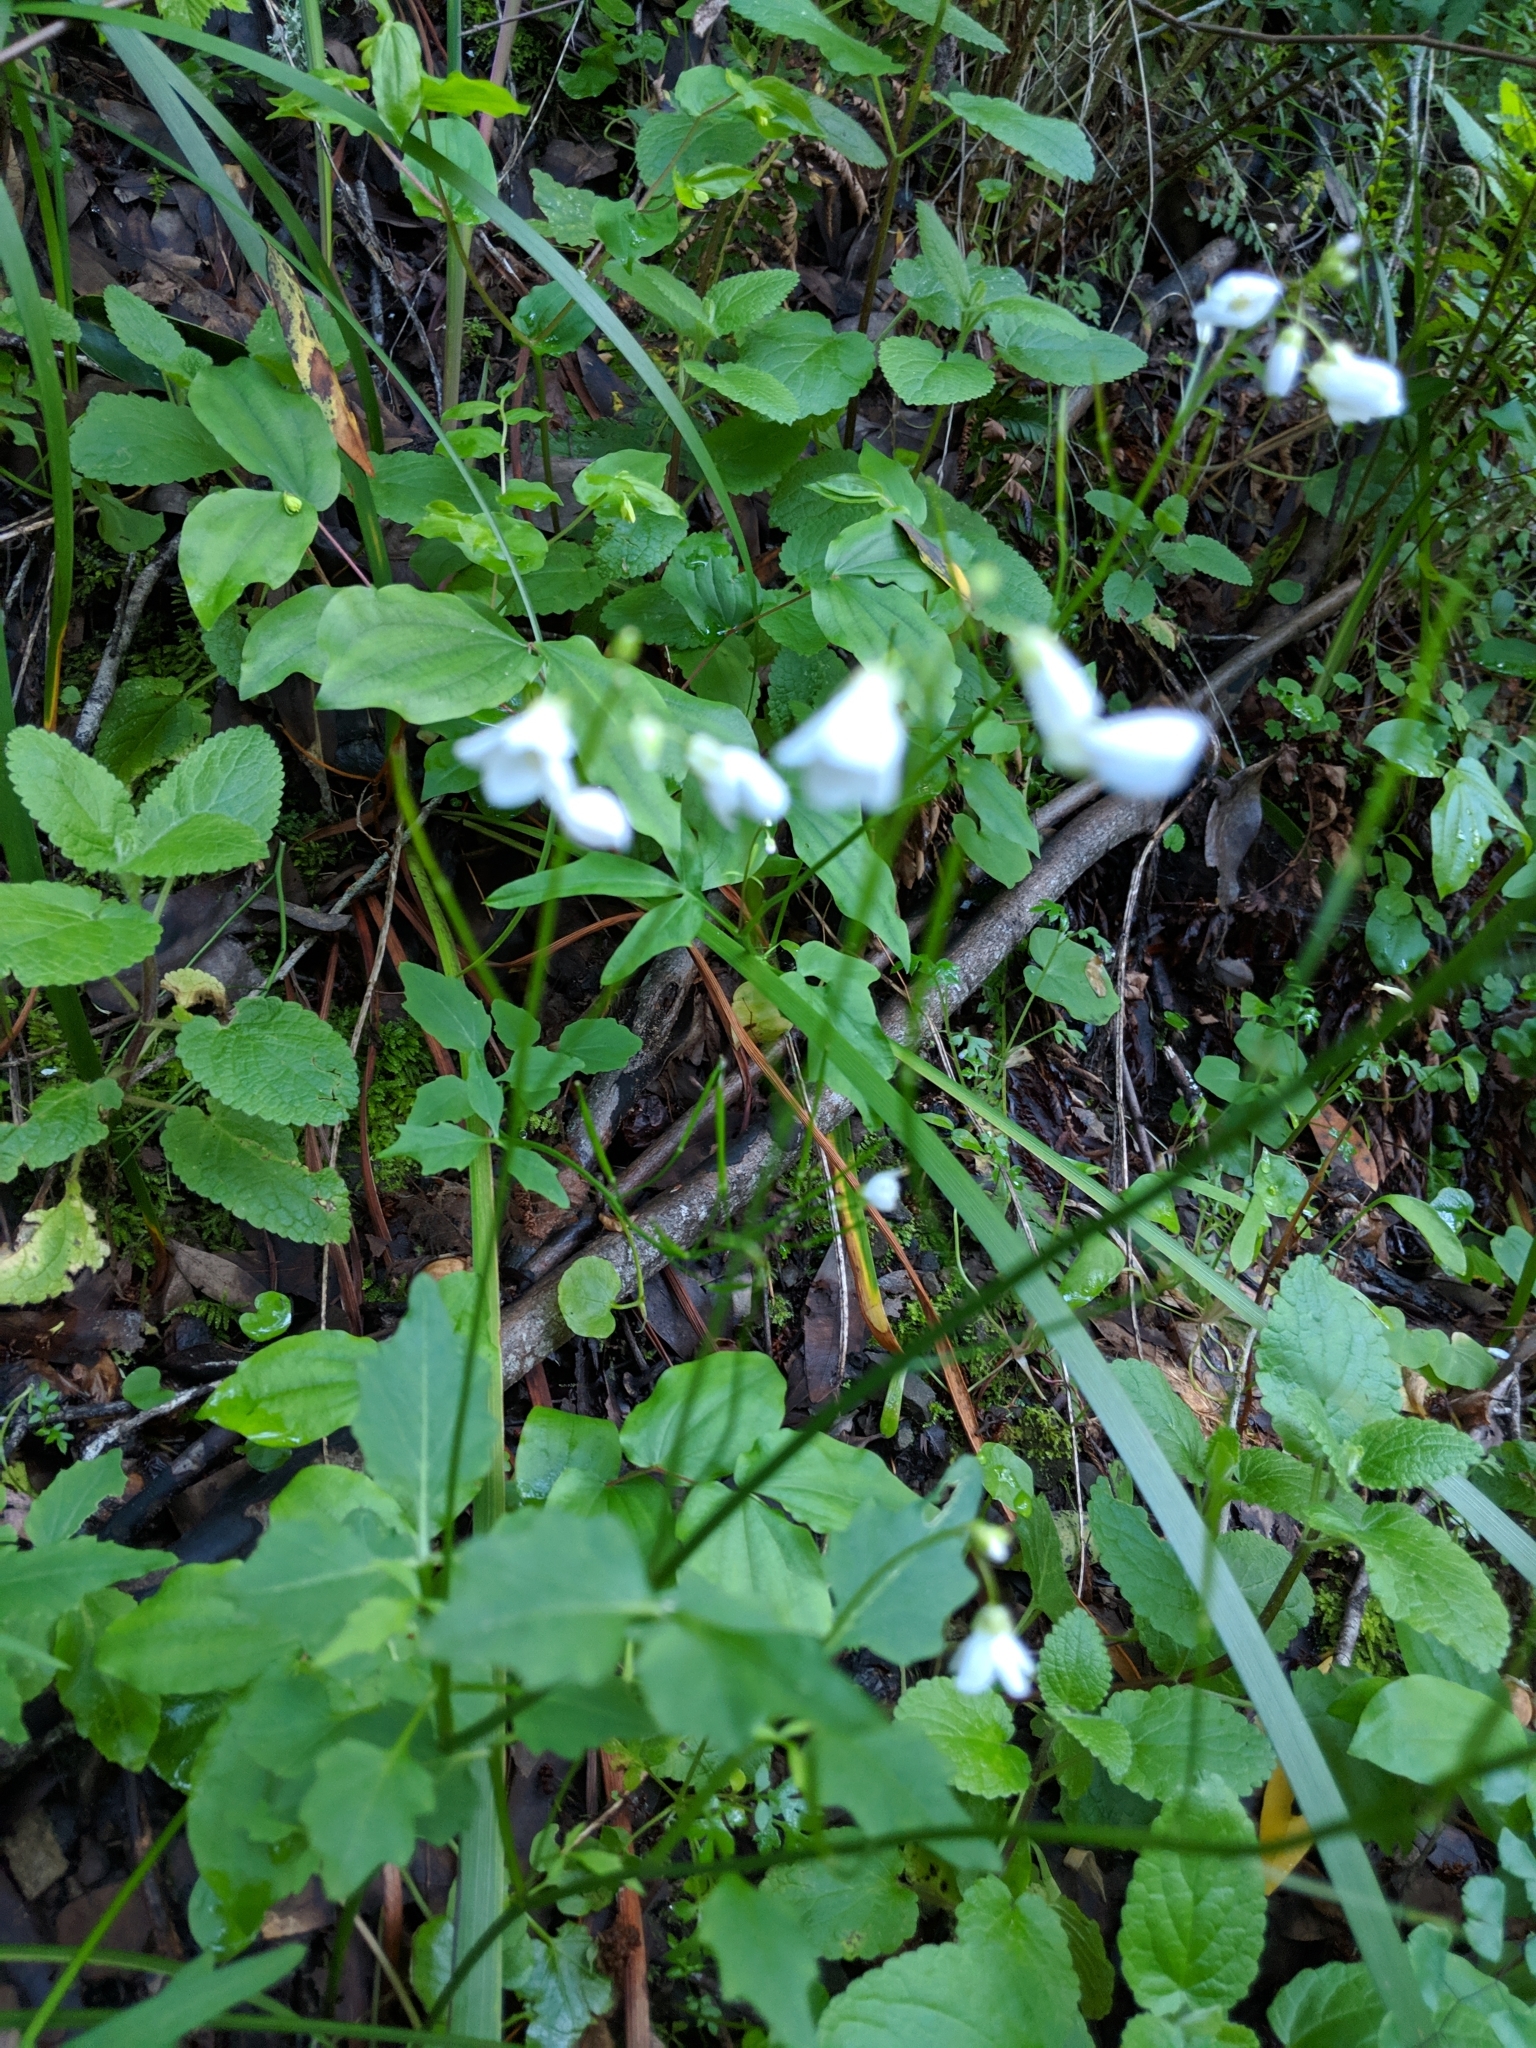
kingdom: Plantae
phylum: Tracheophyta
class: Magnoliopsida
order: Brassicales
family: Brassicaceae
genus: Cardamine
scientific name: Cardamine californica
